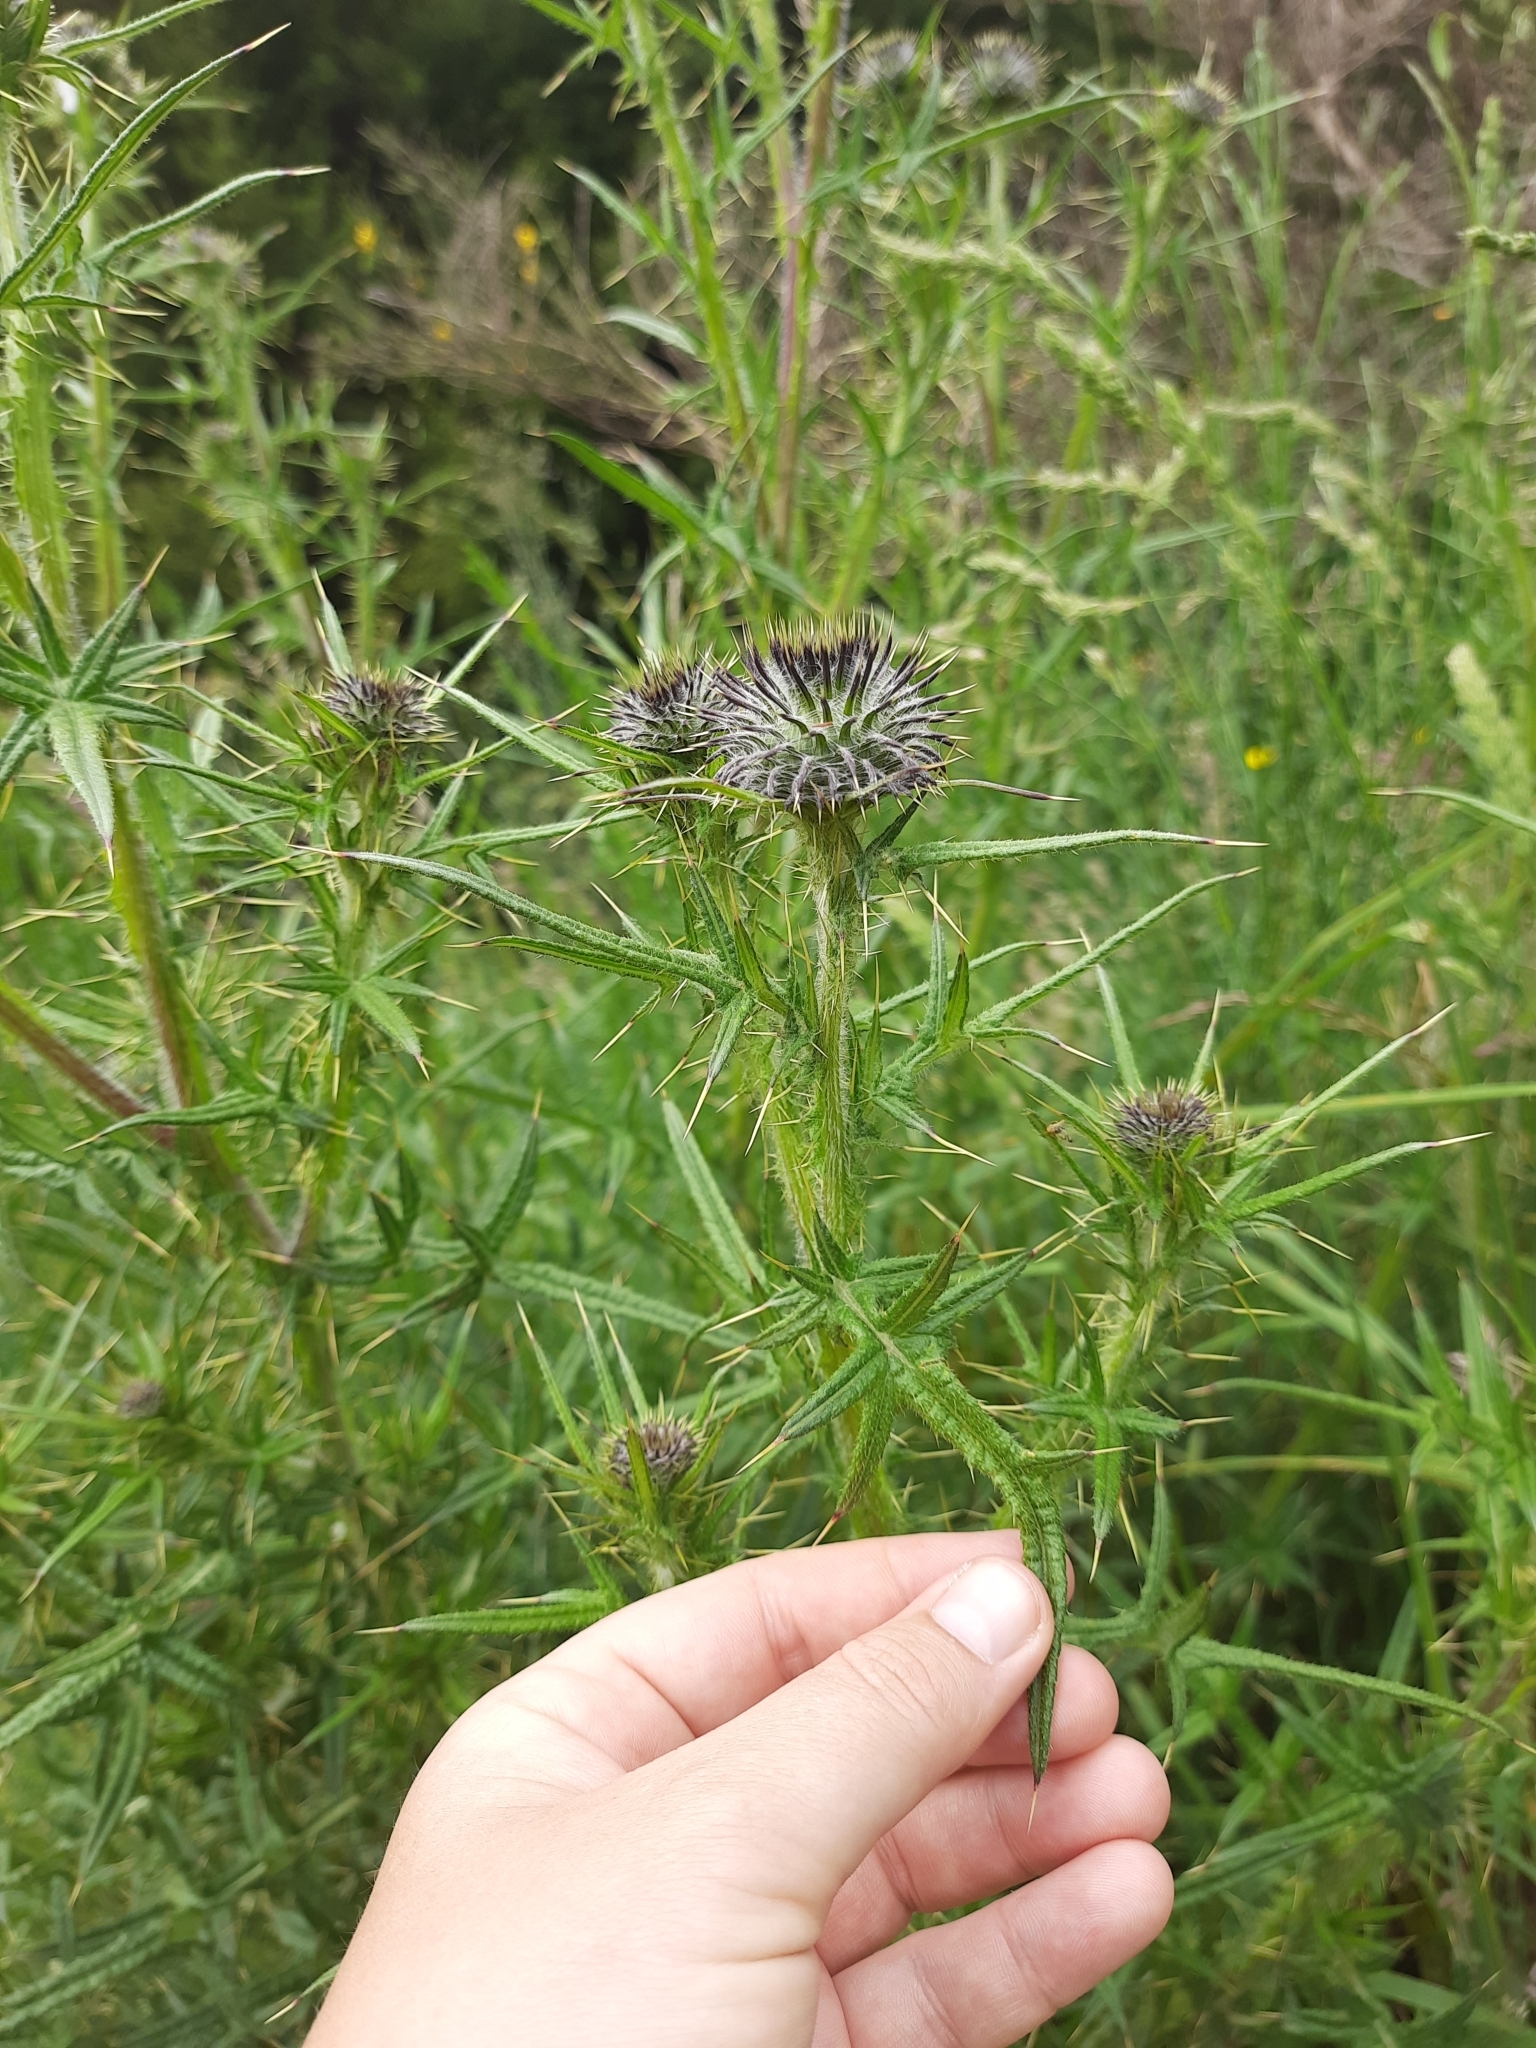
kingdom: Plantae
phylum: Tracheophyta
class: Magnoliopsida
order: Asterales
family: Asteraceae
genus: Cirsium
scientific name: Cirsium vulgare
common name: Bull thistle
